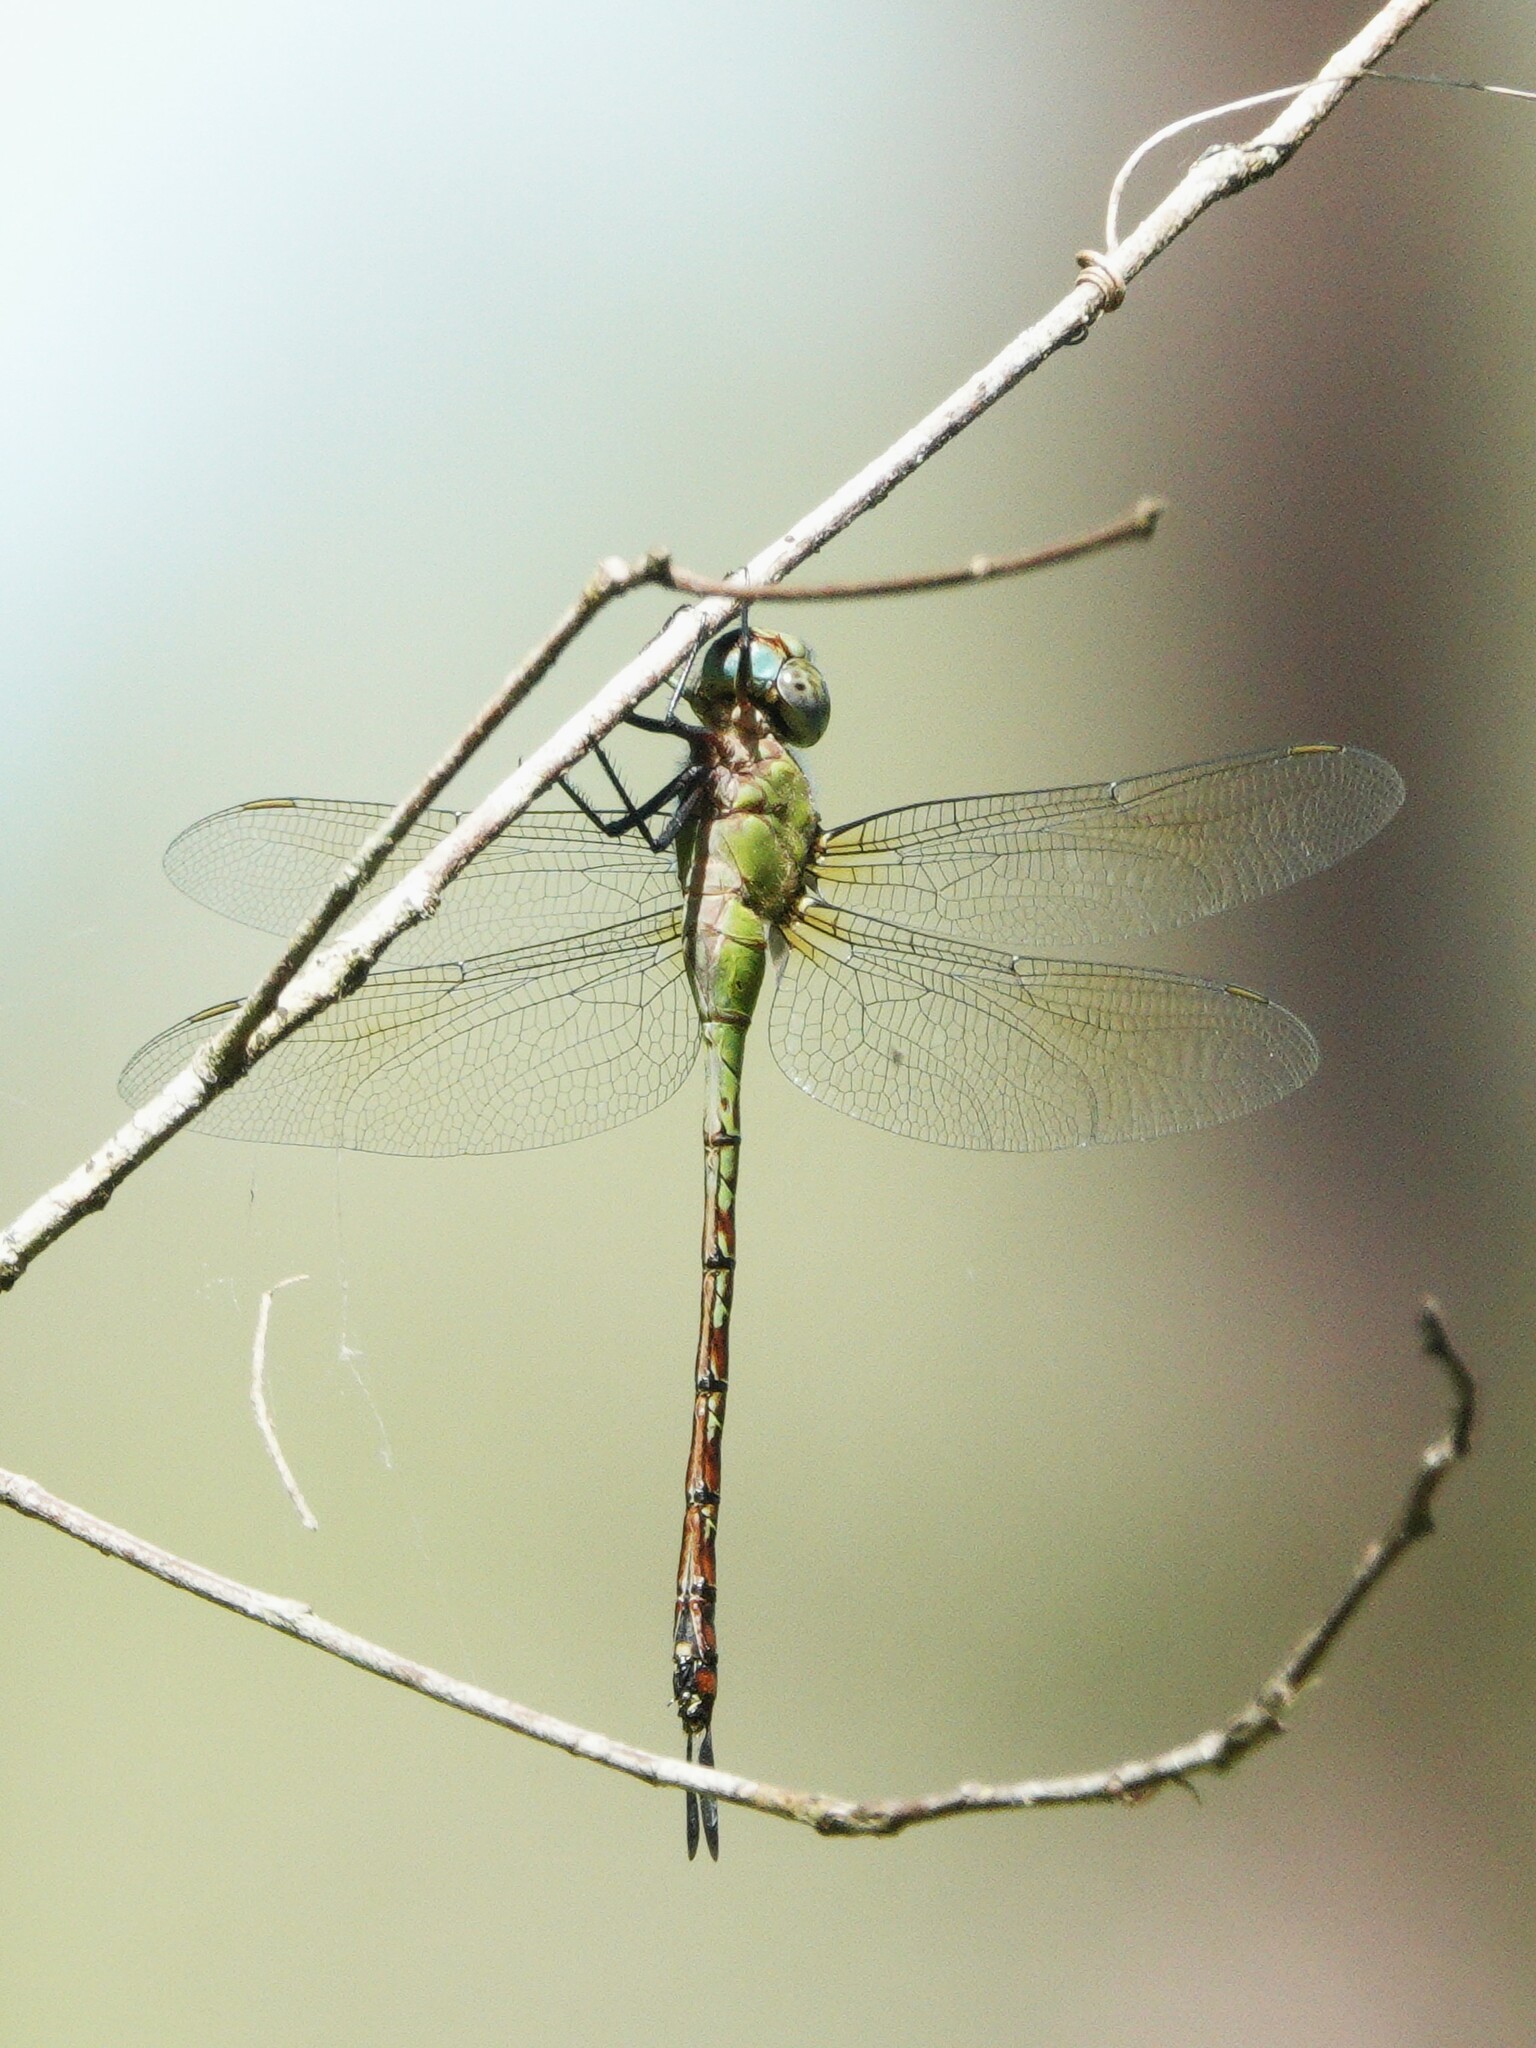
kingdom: Animalia
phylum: Arthropoda
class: Insecta
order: Odonata
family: Aeshnidae
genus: Coryphaeschna
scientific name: Coryphaeschna adnexa
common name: Blue-faced darner
